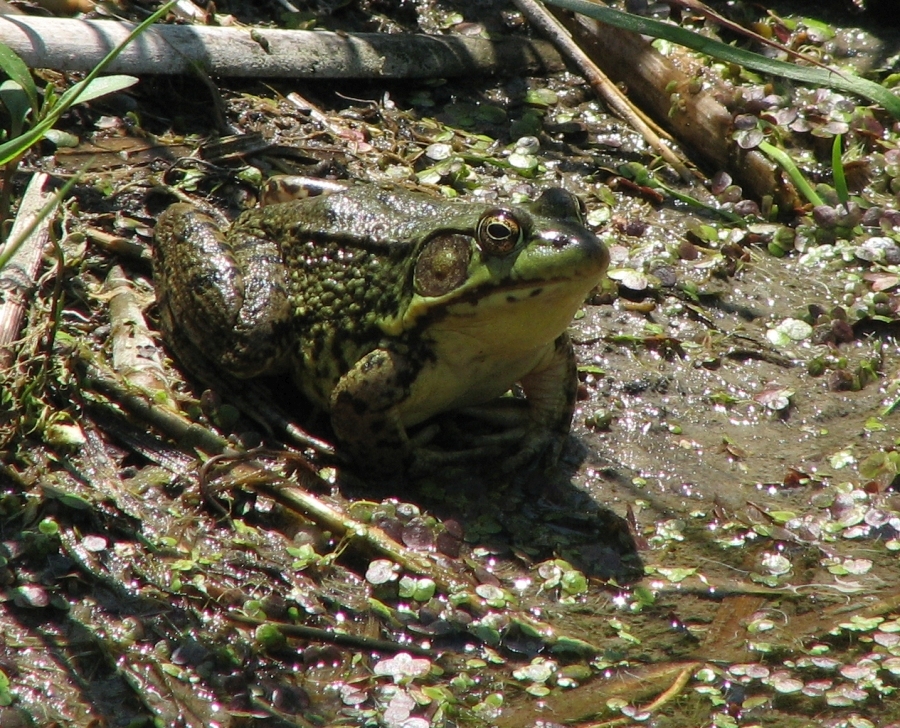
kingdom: Animalia
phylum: Chordata
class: Amphibia
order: Anura
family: Ranidae
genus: Lithobates
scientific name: Lithobates clamitans
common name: Green frog
